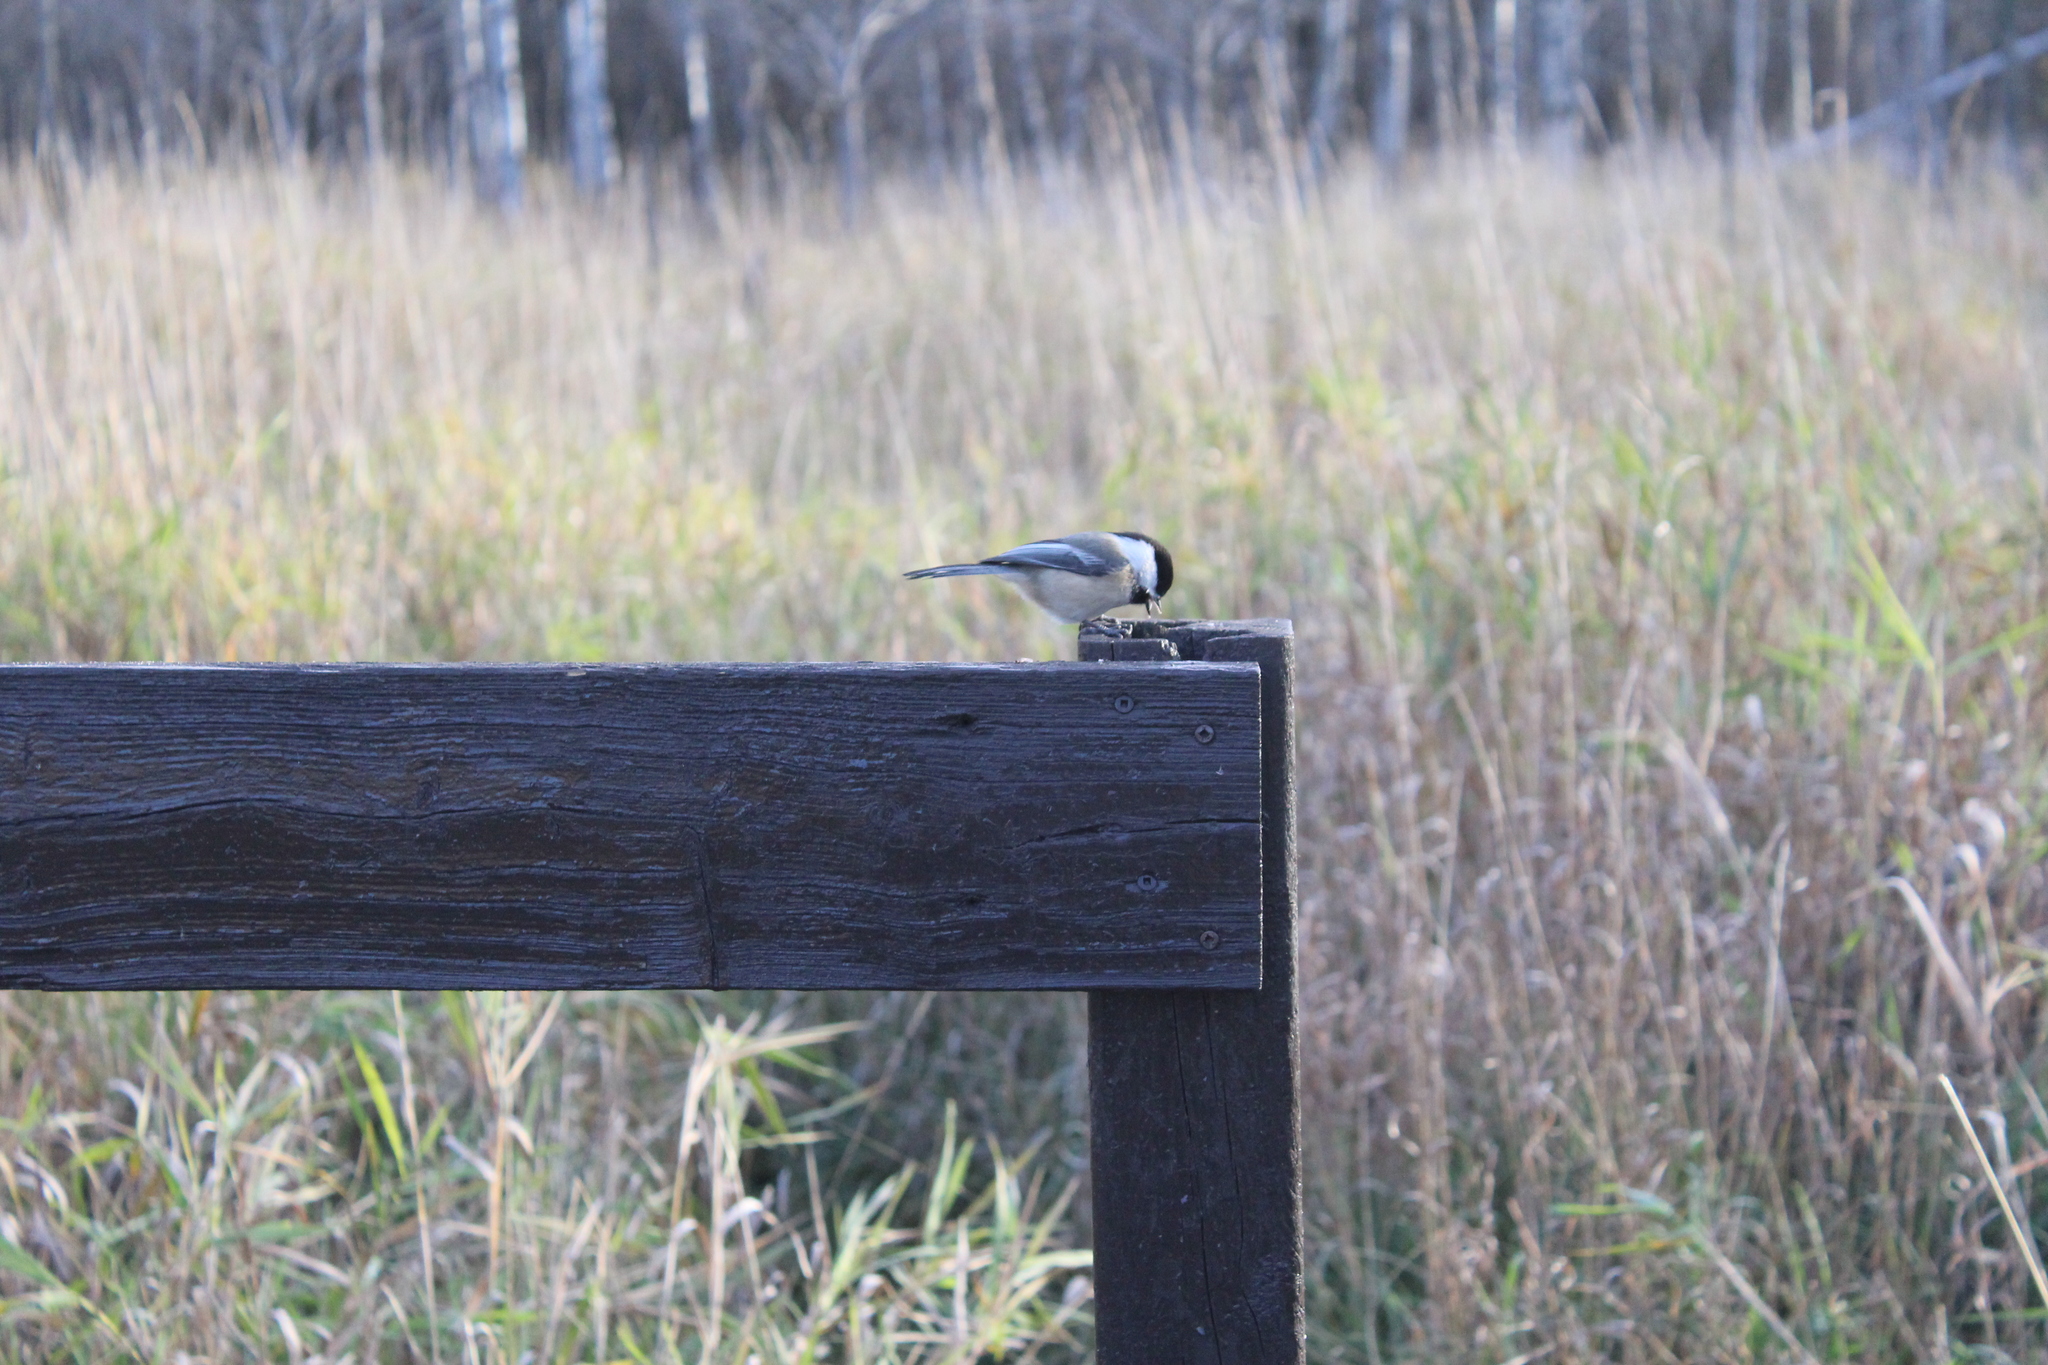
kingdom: Animalia
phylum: Chordata
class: Aves
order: Passeriformes
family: Paridae
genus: Poecile
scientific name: Poecile atricapillus
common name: Black-capped chickadee
